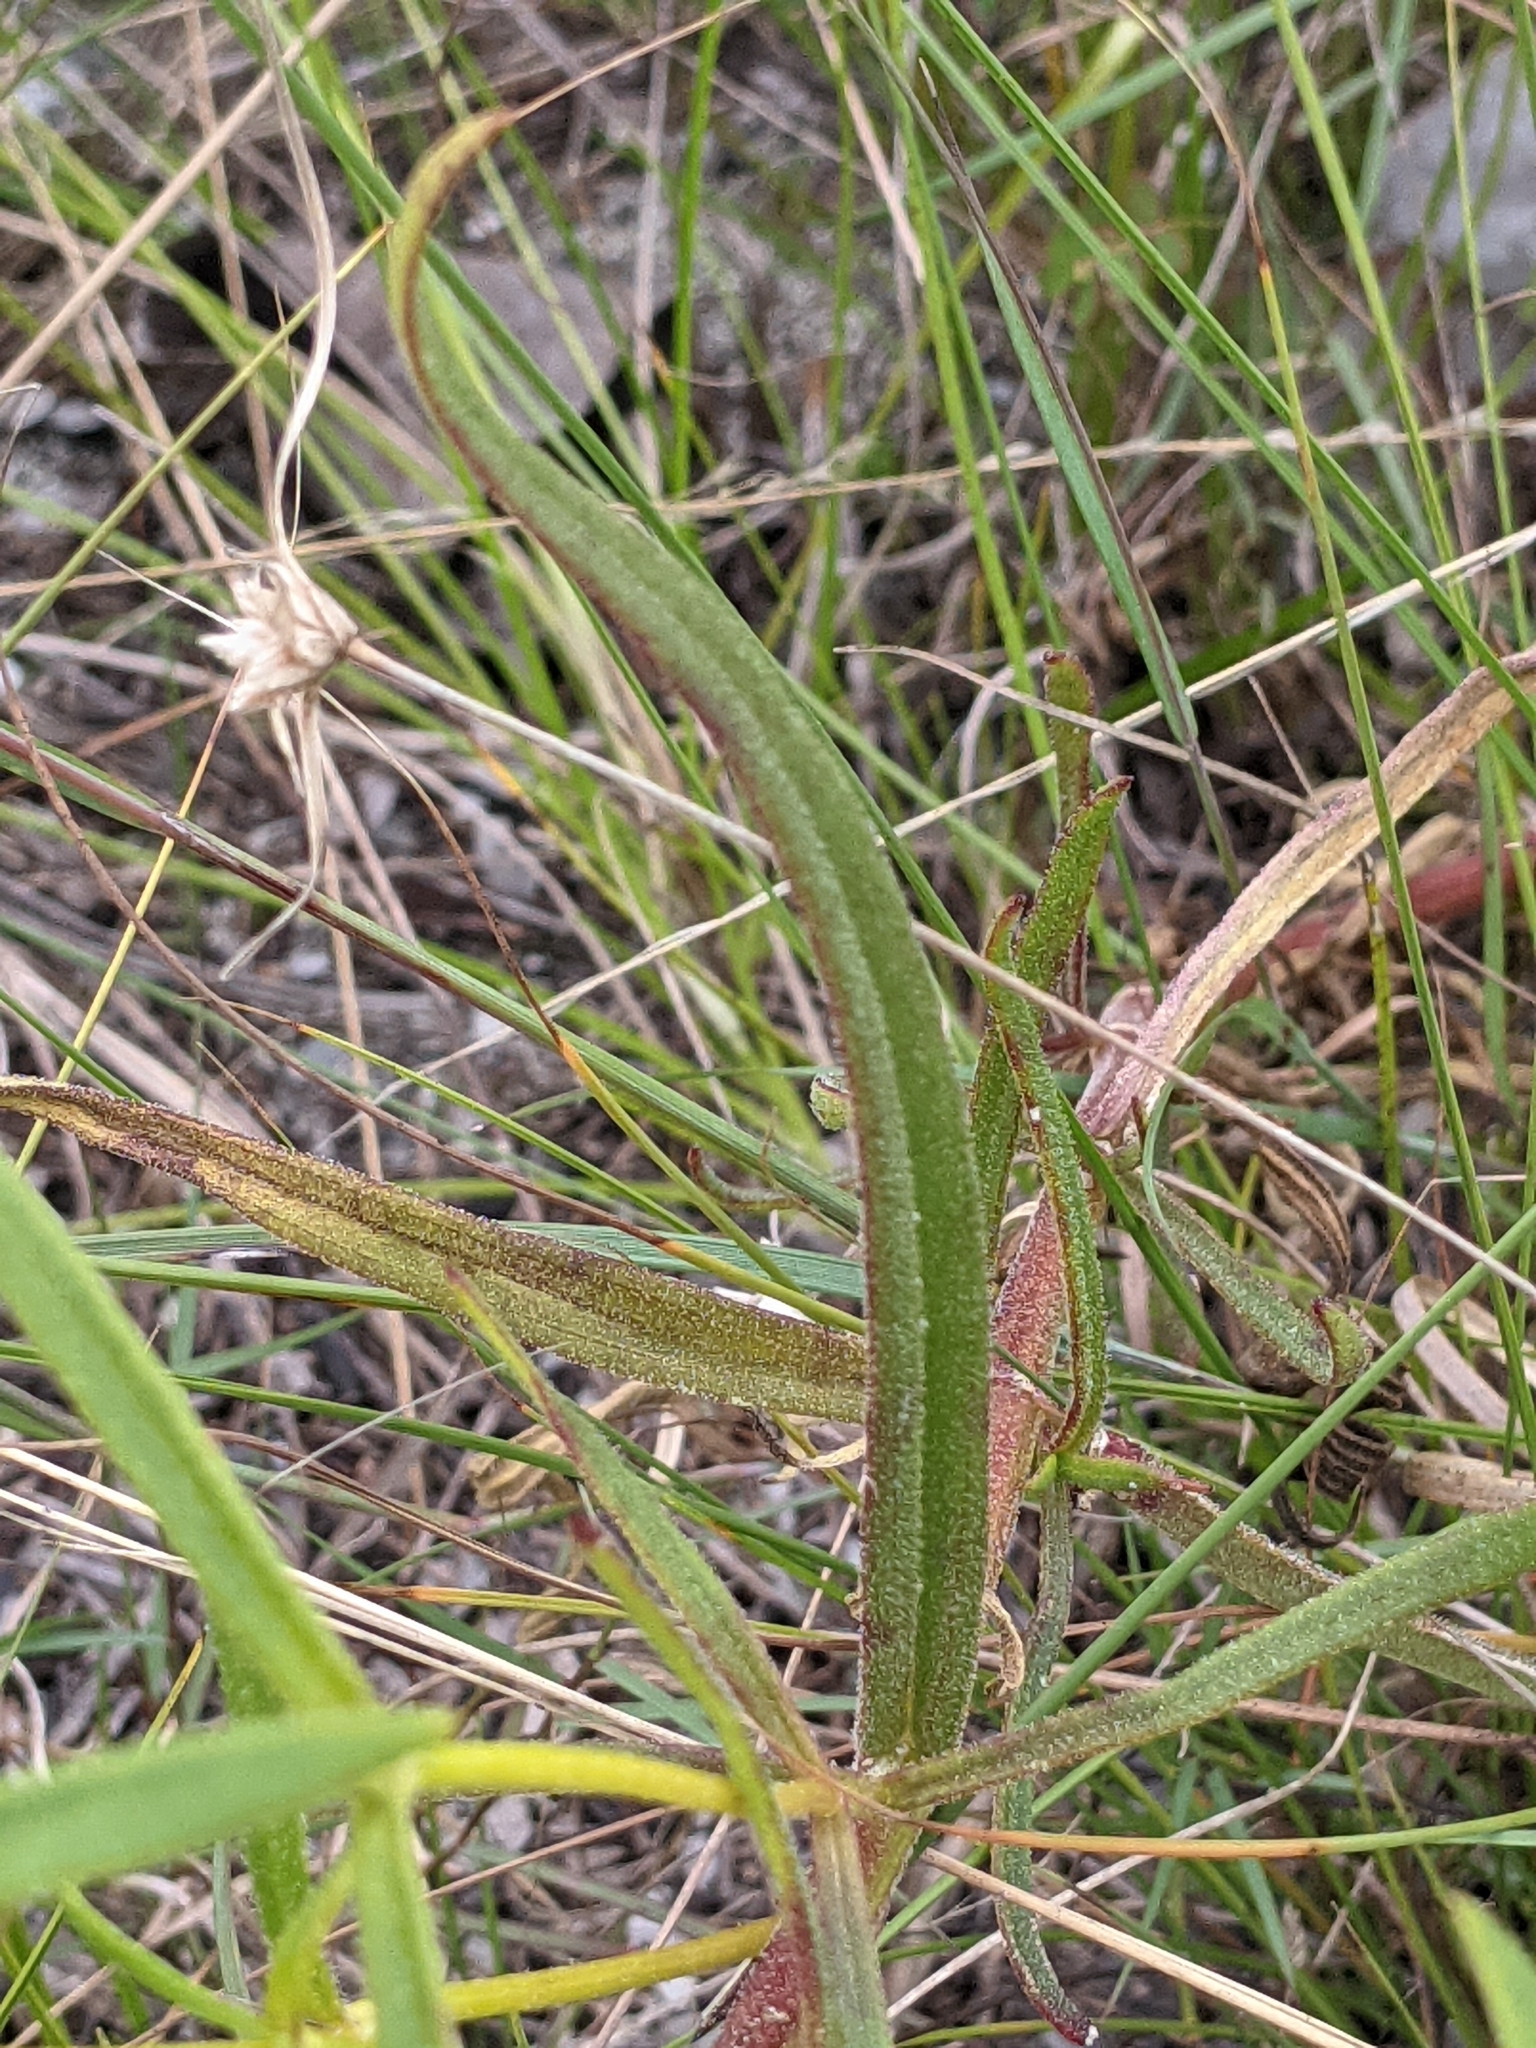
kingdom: Plantae
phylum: Tracheophyta
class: Magnoliopsida
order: Asterales
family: Asteraceae
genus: Flaveria
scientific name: Flaveria linearis
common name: Yellowtop
